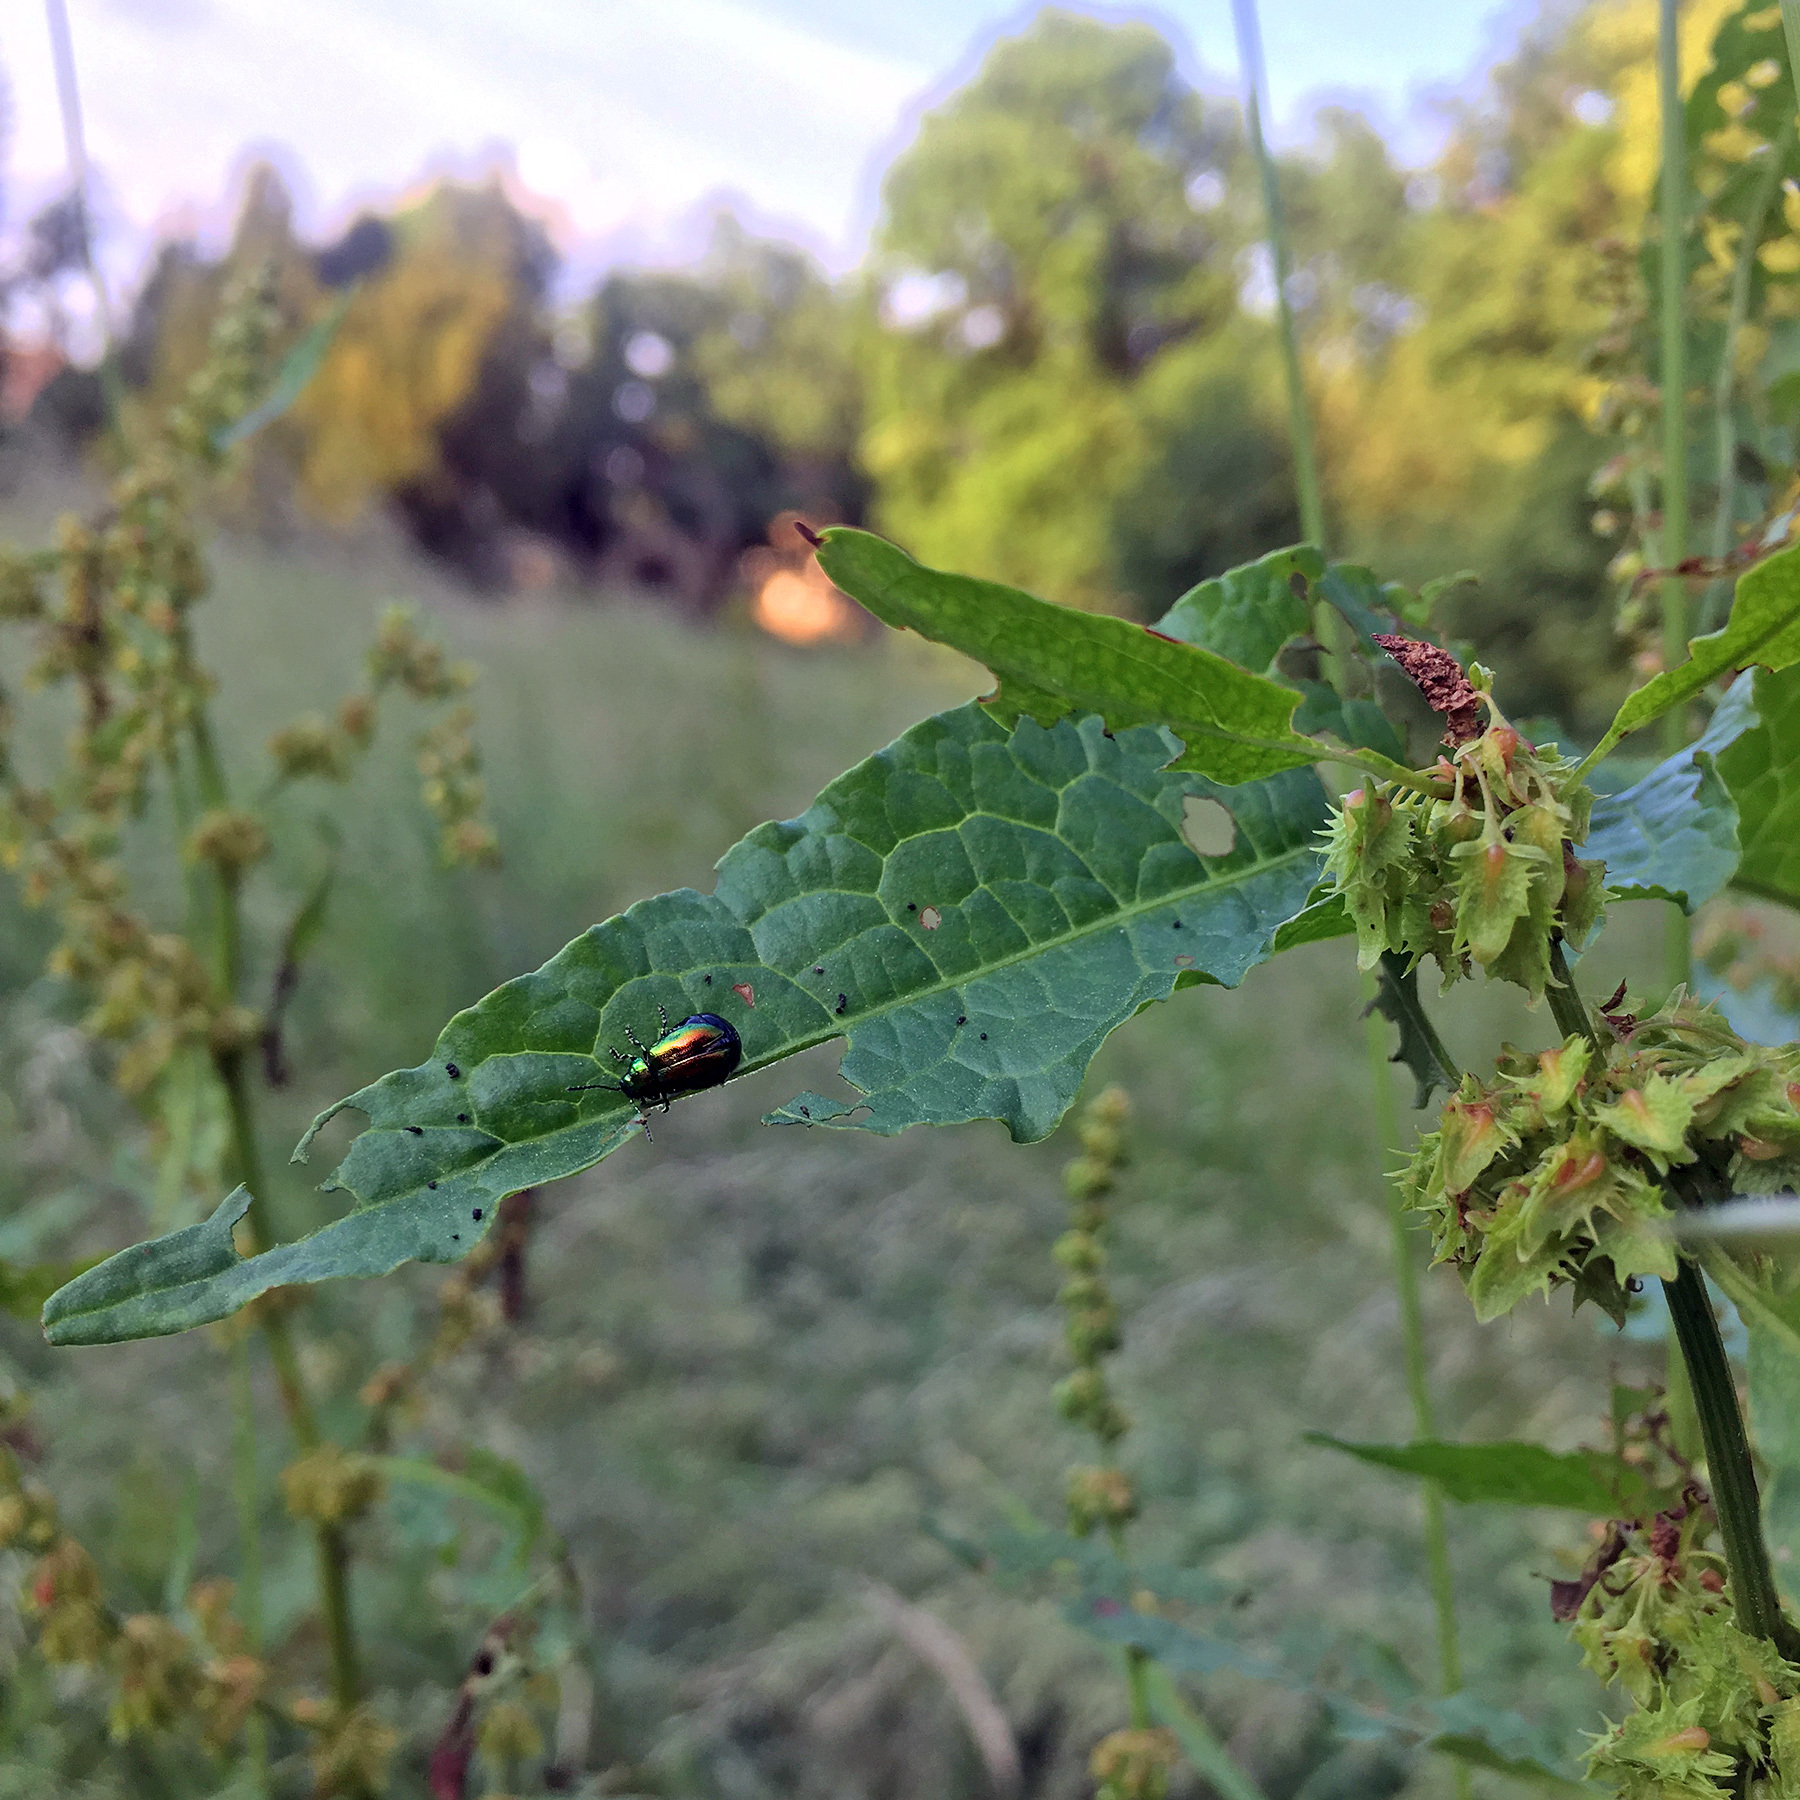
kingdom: Animalia
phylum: Arthropoda
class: Insecta
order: Coleoptera
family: Chrysomelidae
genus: Gastrophysa
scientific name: Gastrophysa viridula
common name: Green dock beetle
